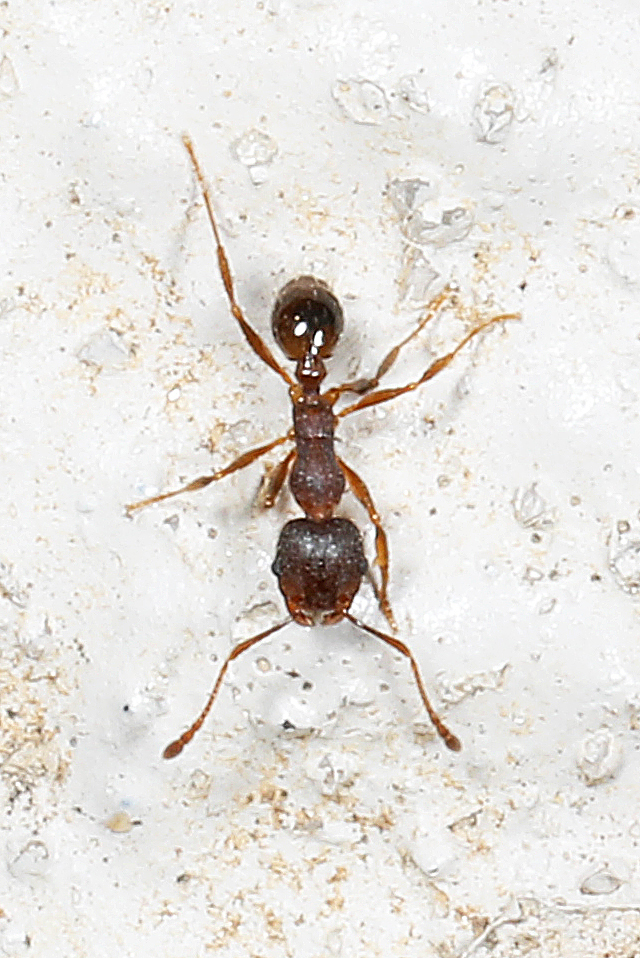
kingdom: Animalia
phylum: Arthropoda
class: Insecta
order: Hymenoptera
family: Formicidae
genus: Pheidole
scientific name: Pheidole pilifera
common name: Hairy big-headed ant
